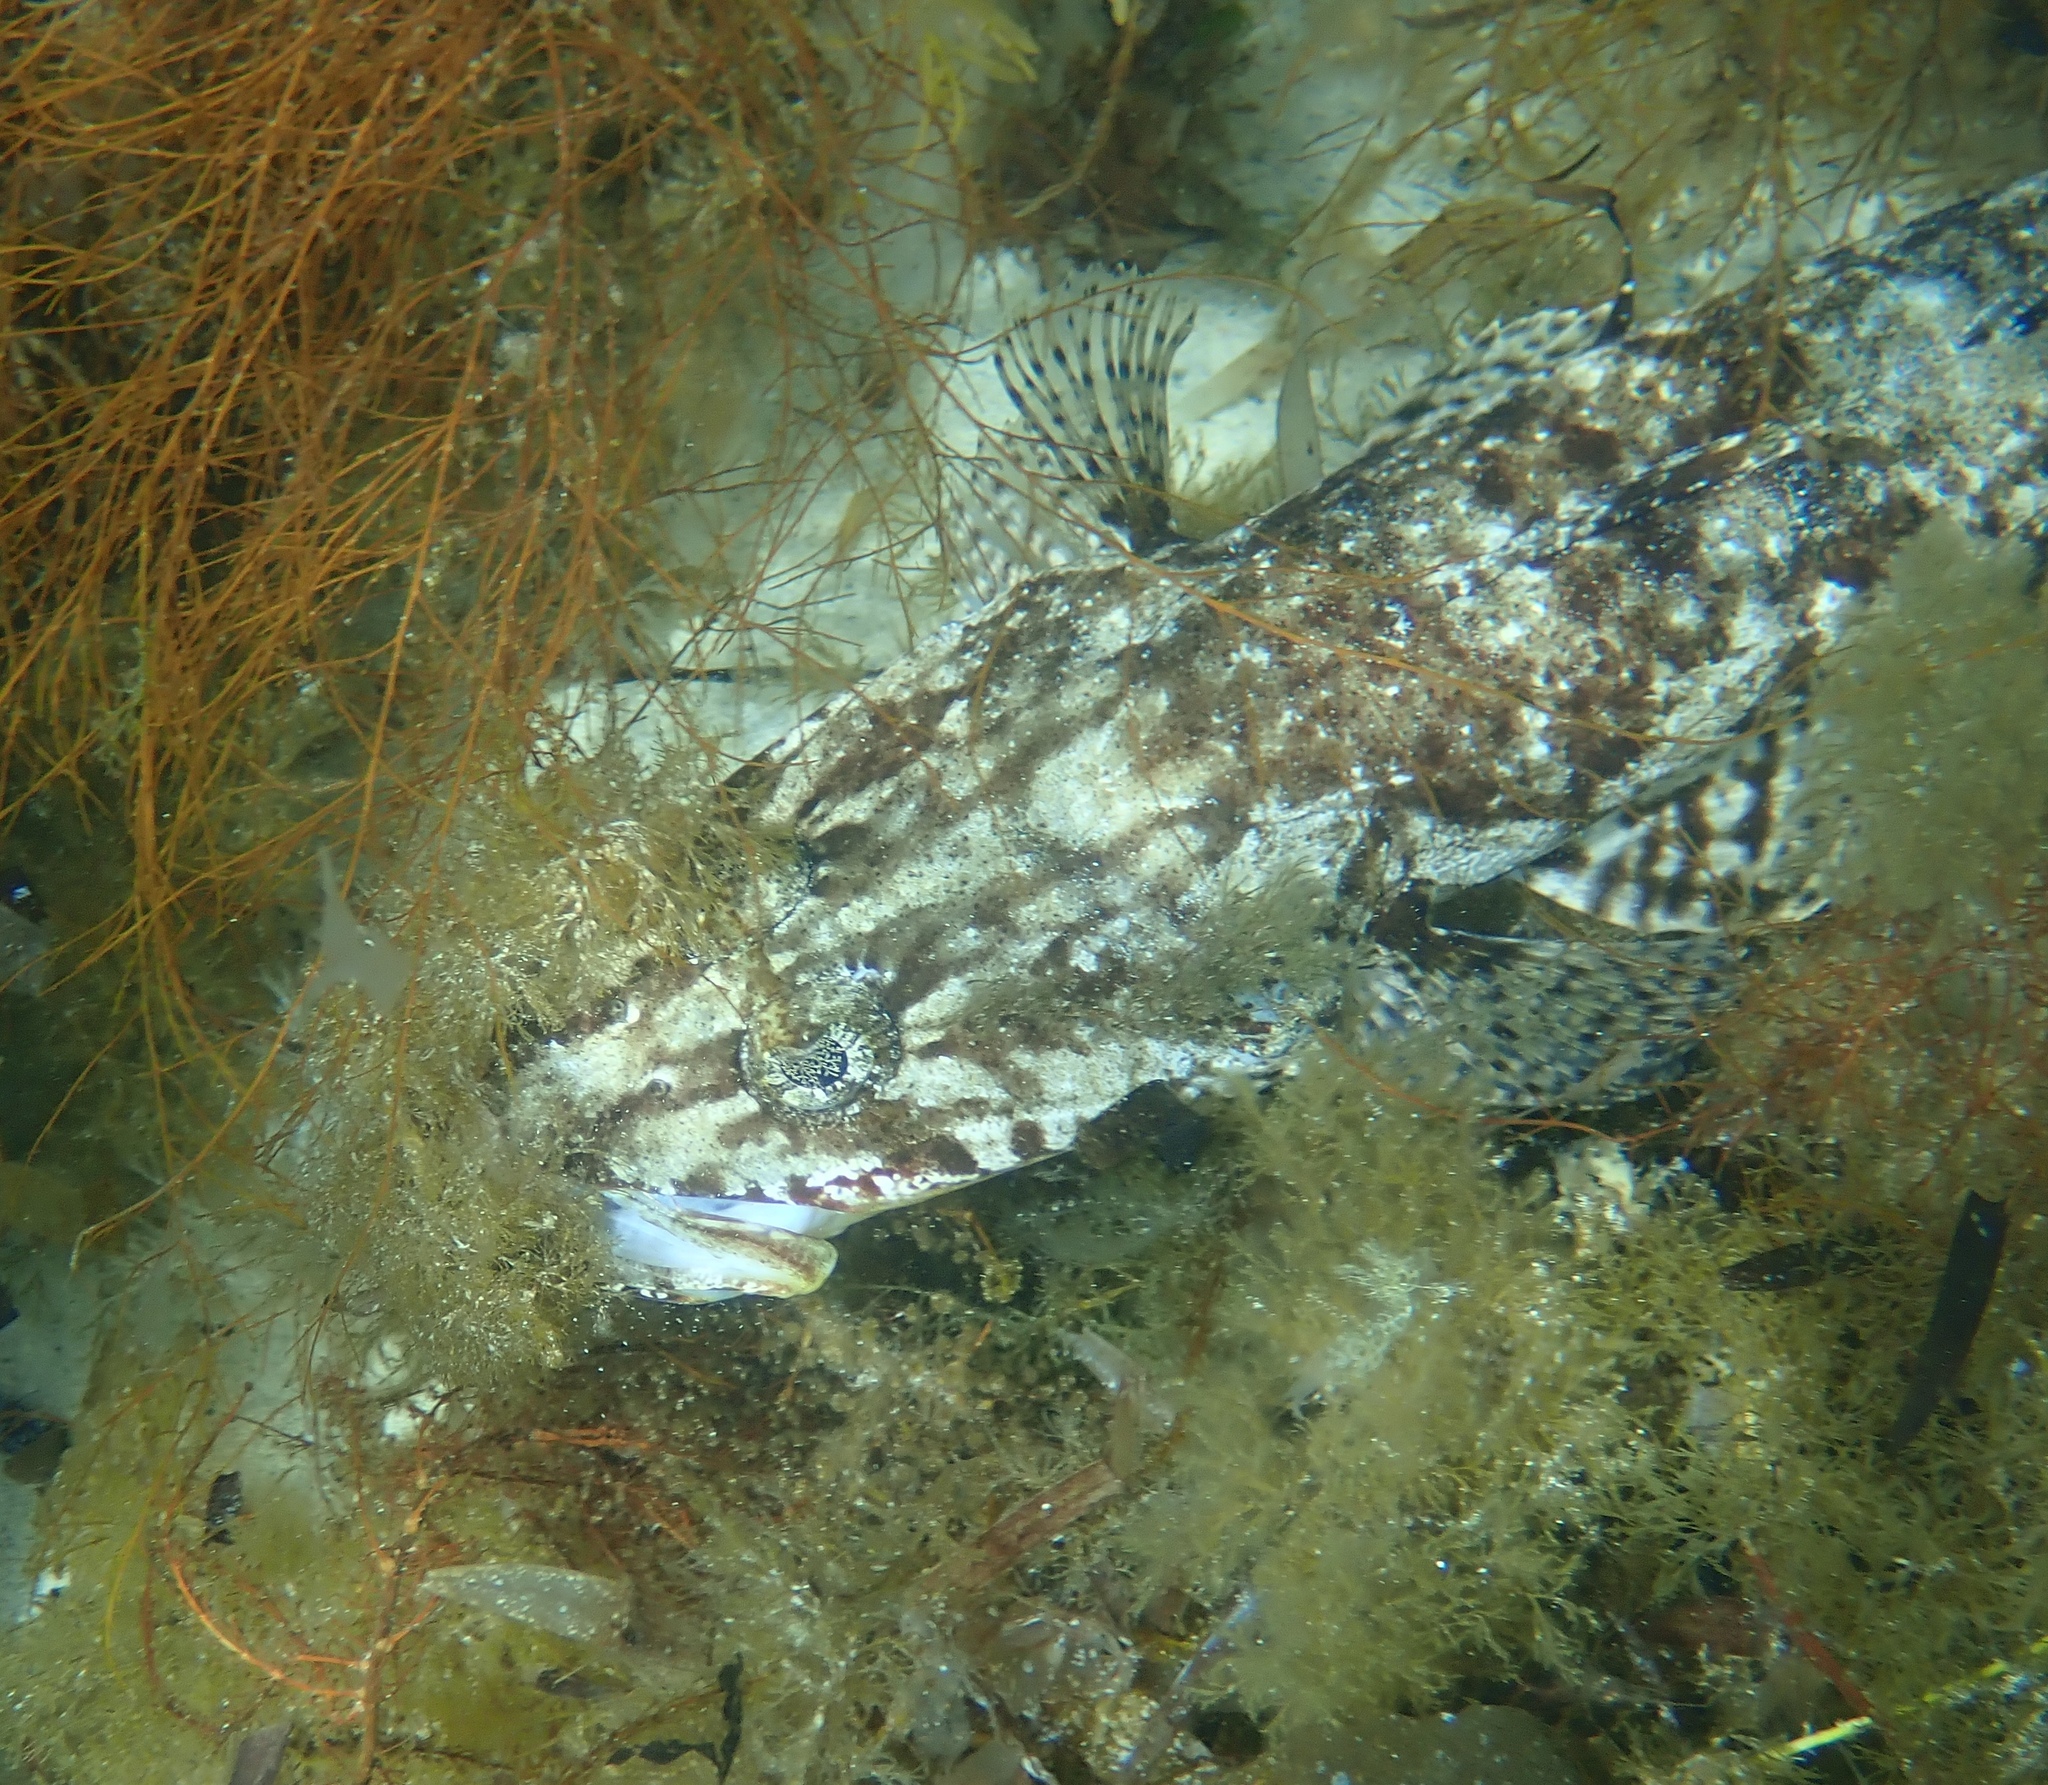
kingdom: Animalia
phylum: Chordata
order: Scorpaeniformes
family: Platycephalidae
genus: Leviprora
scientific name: Leviprora inops
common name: Longhead flatfish
